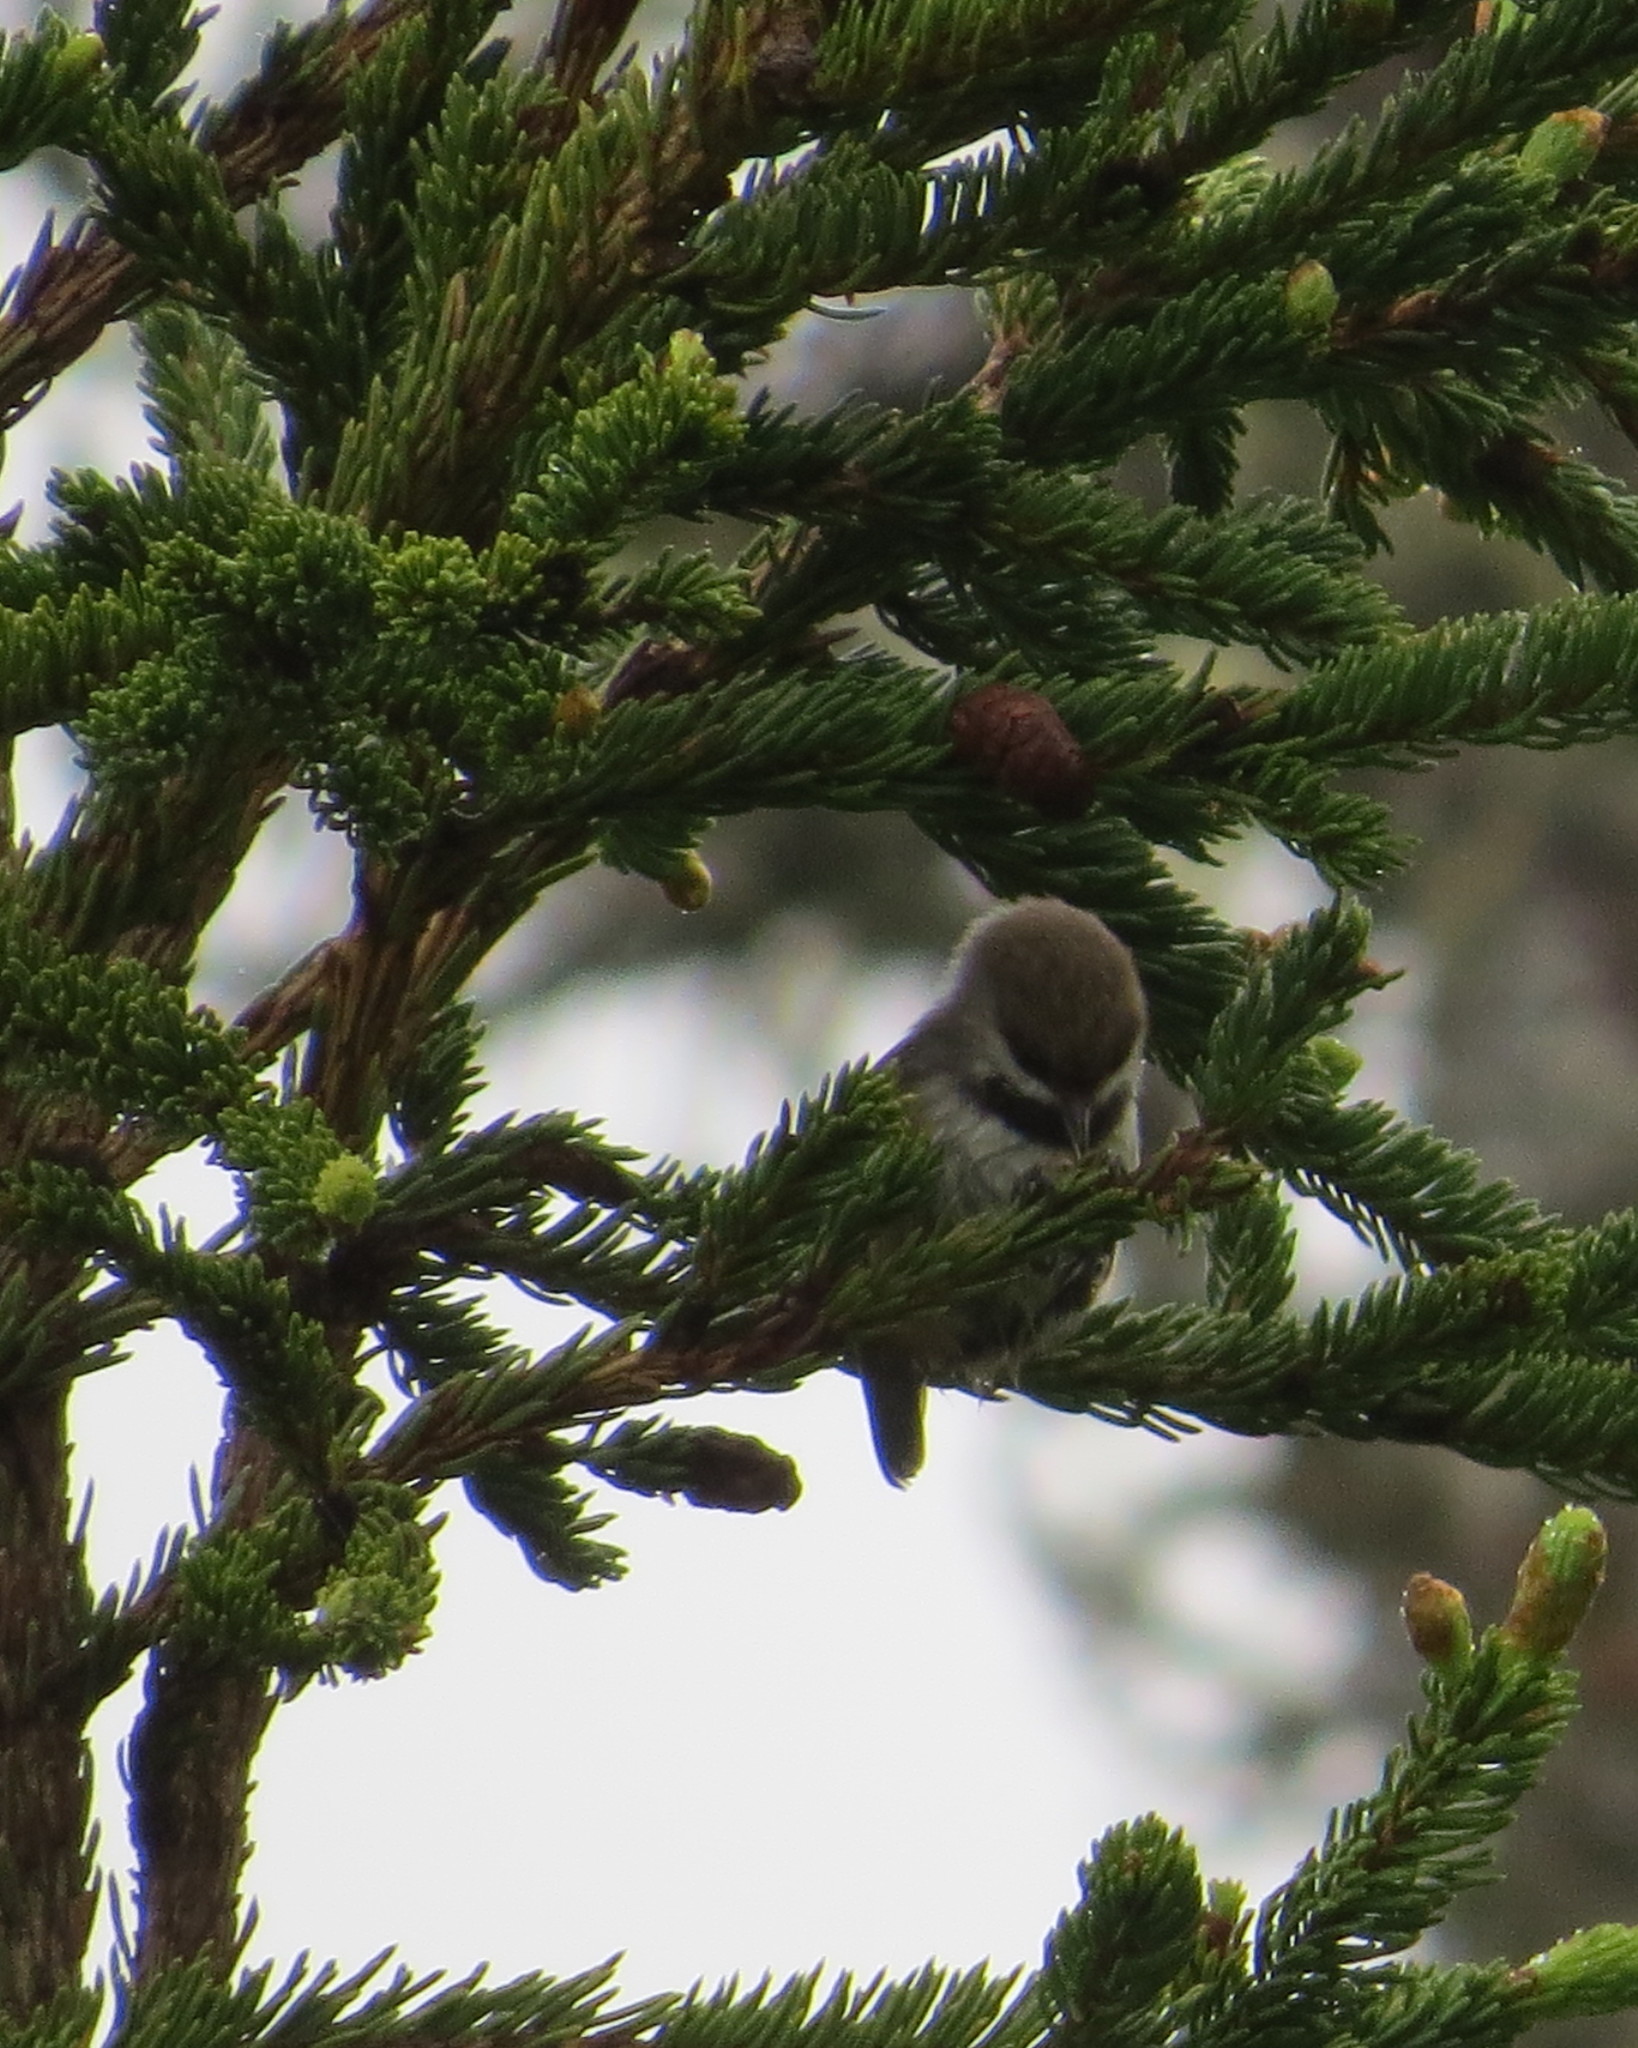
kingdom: Animalia
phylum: Chordata
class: Aves
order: Passeriformes
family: Paridae
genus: Poecile
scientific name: Poecile hudsonicus
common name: Boreal chickadee
